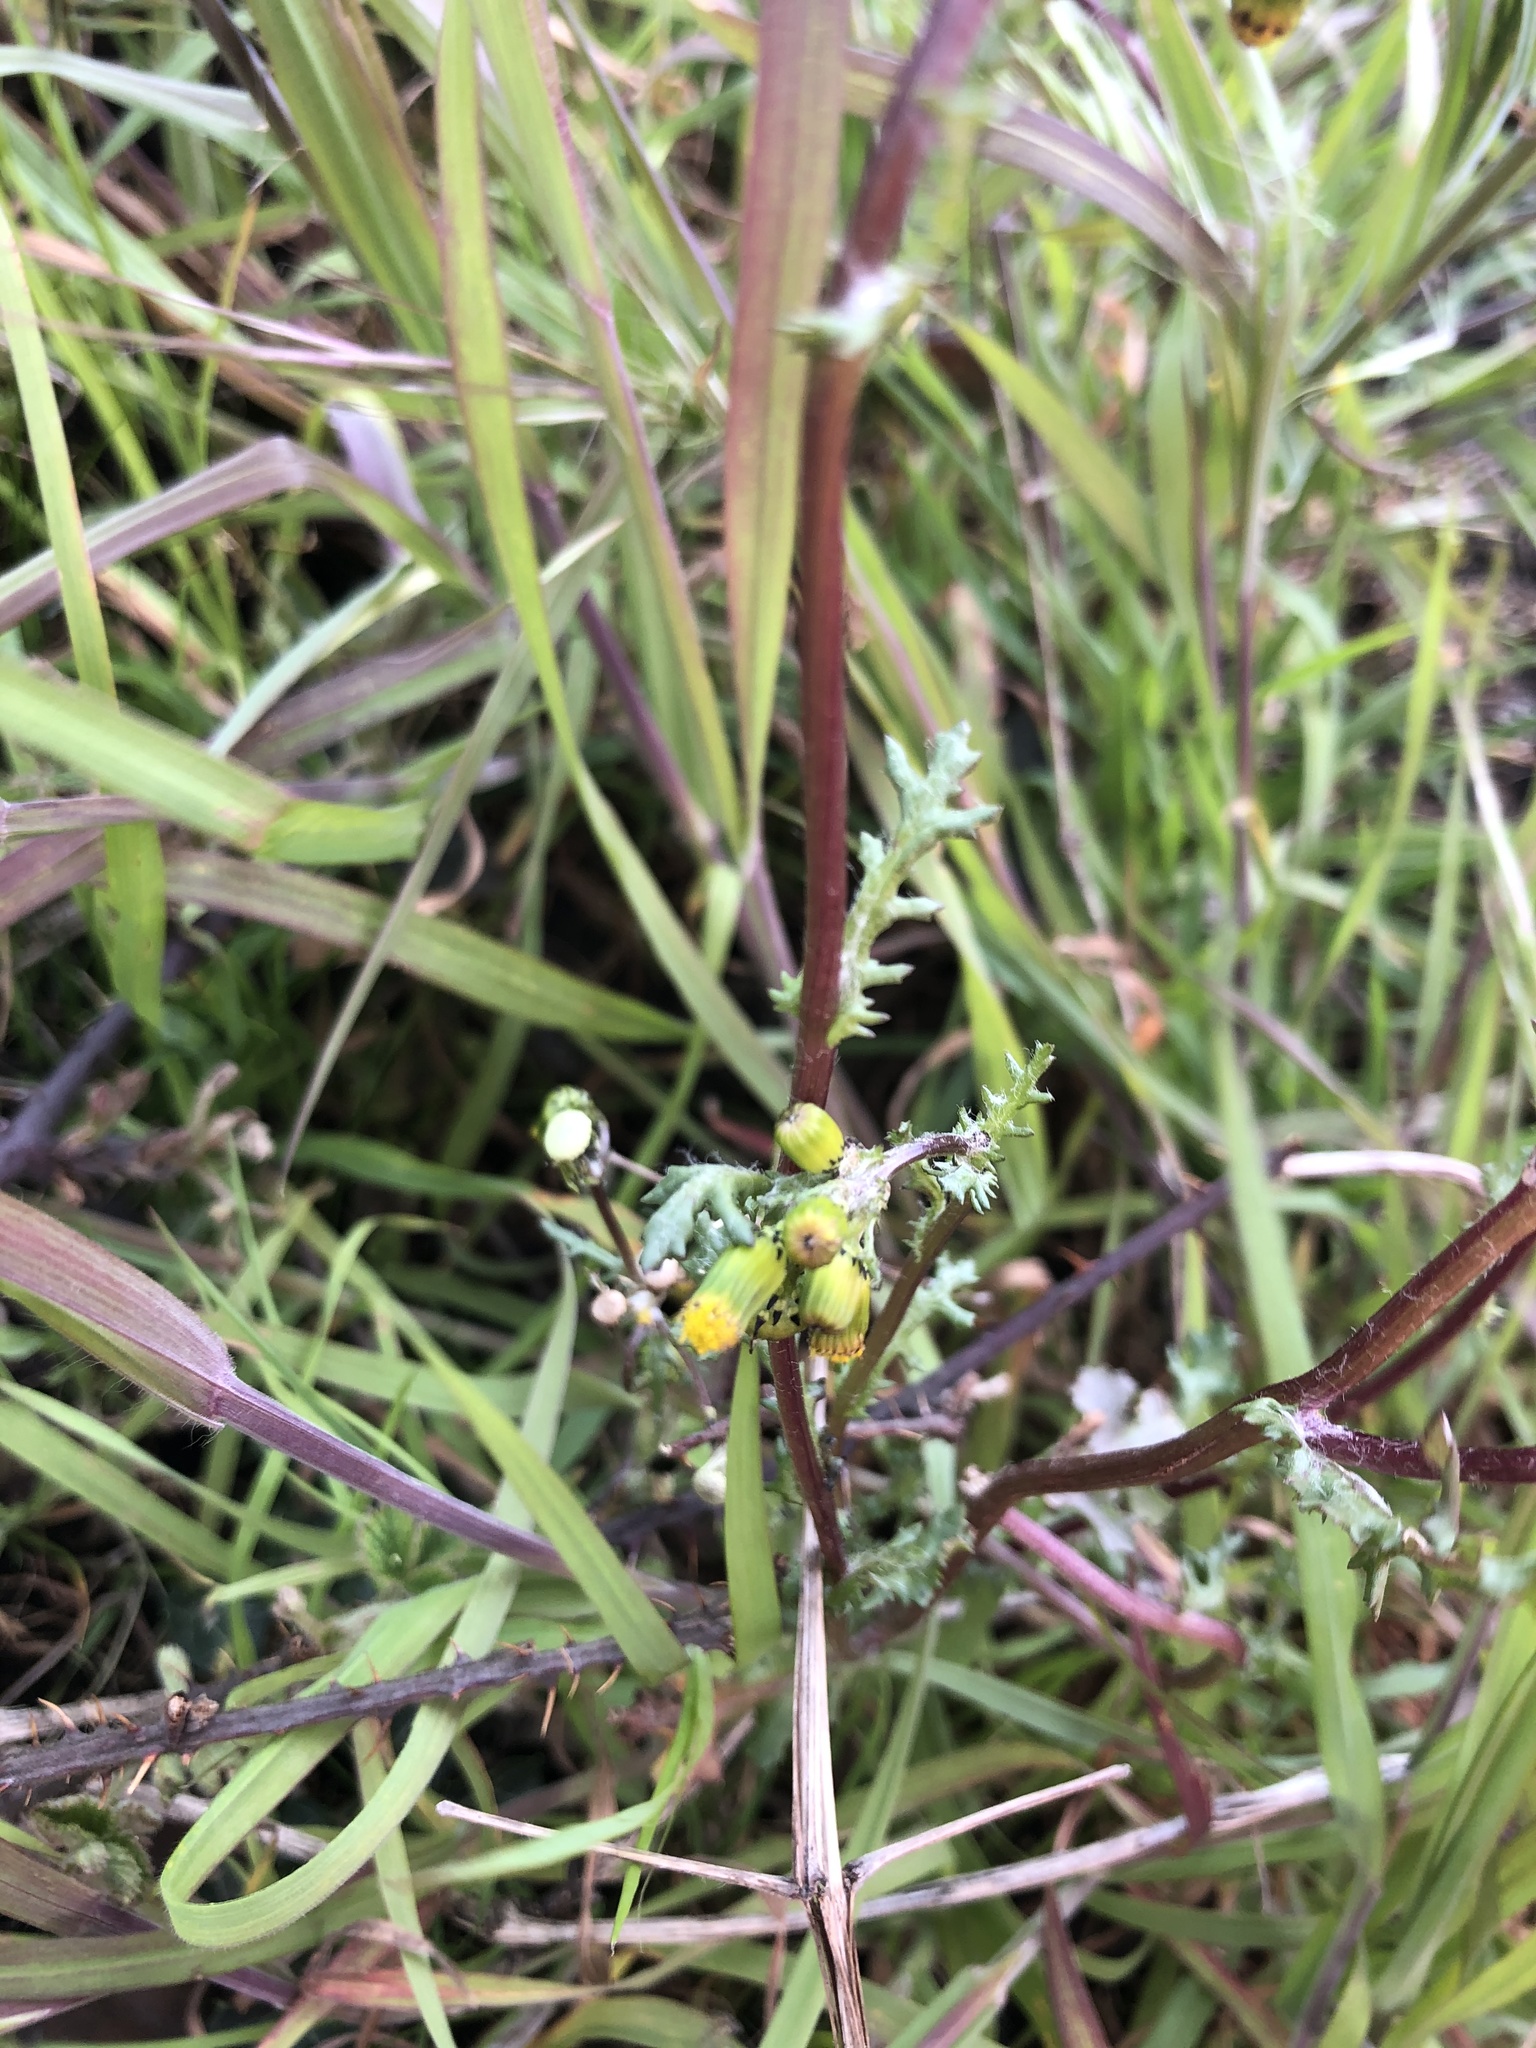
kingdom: Plantae
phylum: Tracheophyta
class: Magnoliopsida
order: Asterales
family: Asteraceae
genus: Senecio
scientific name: Senecio vulgaris
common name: Old-man-in-the-spring
